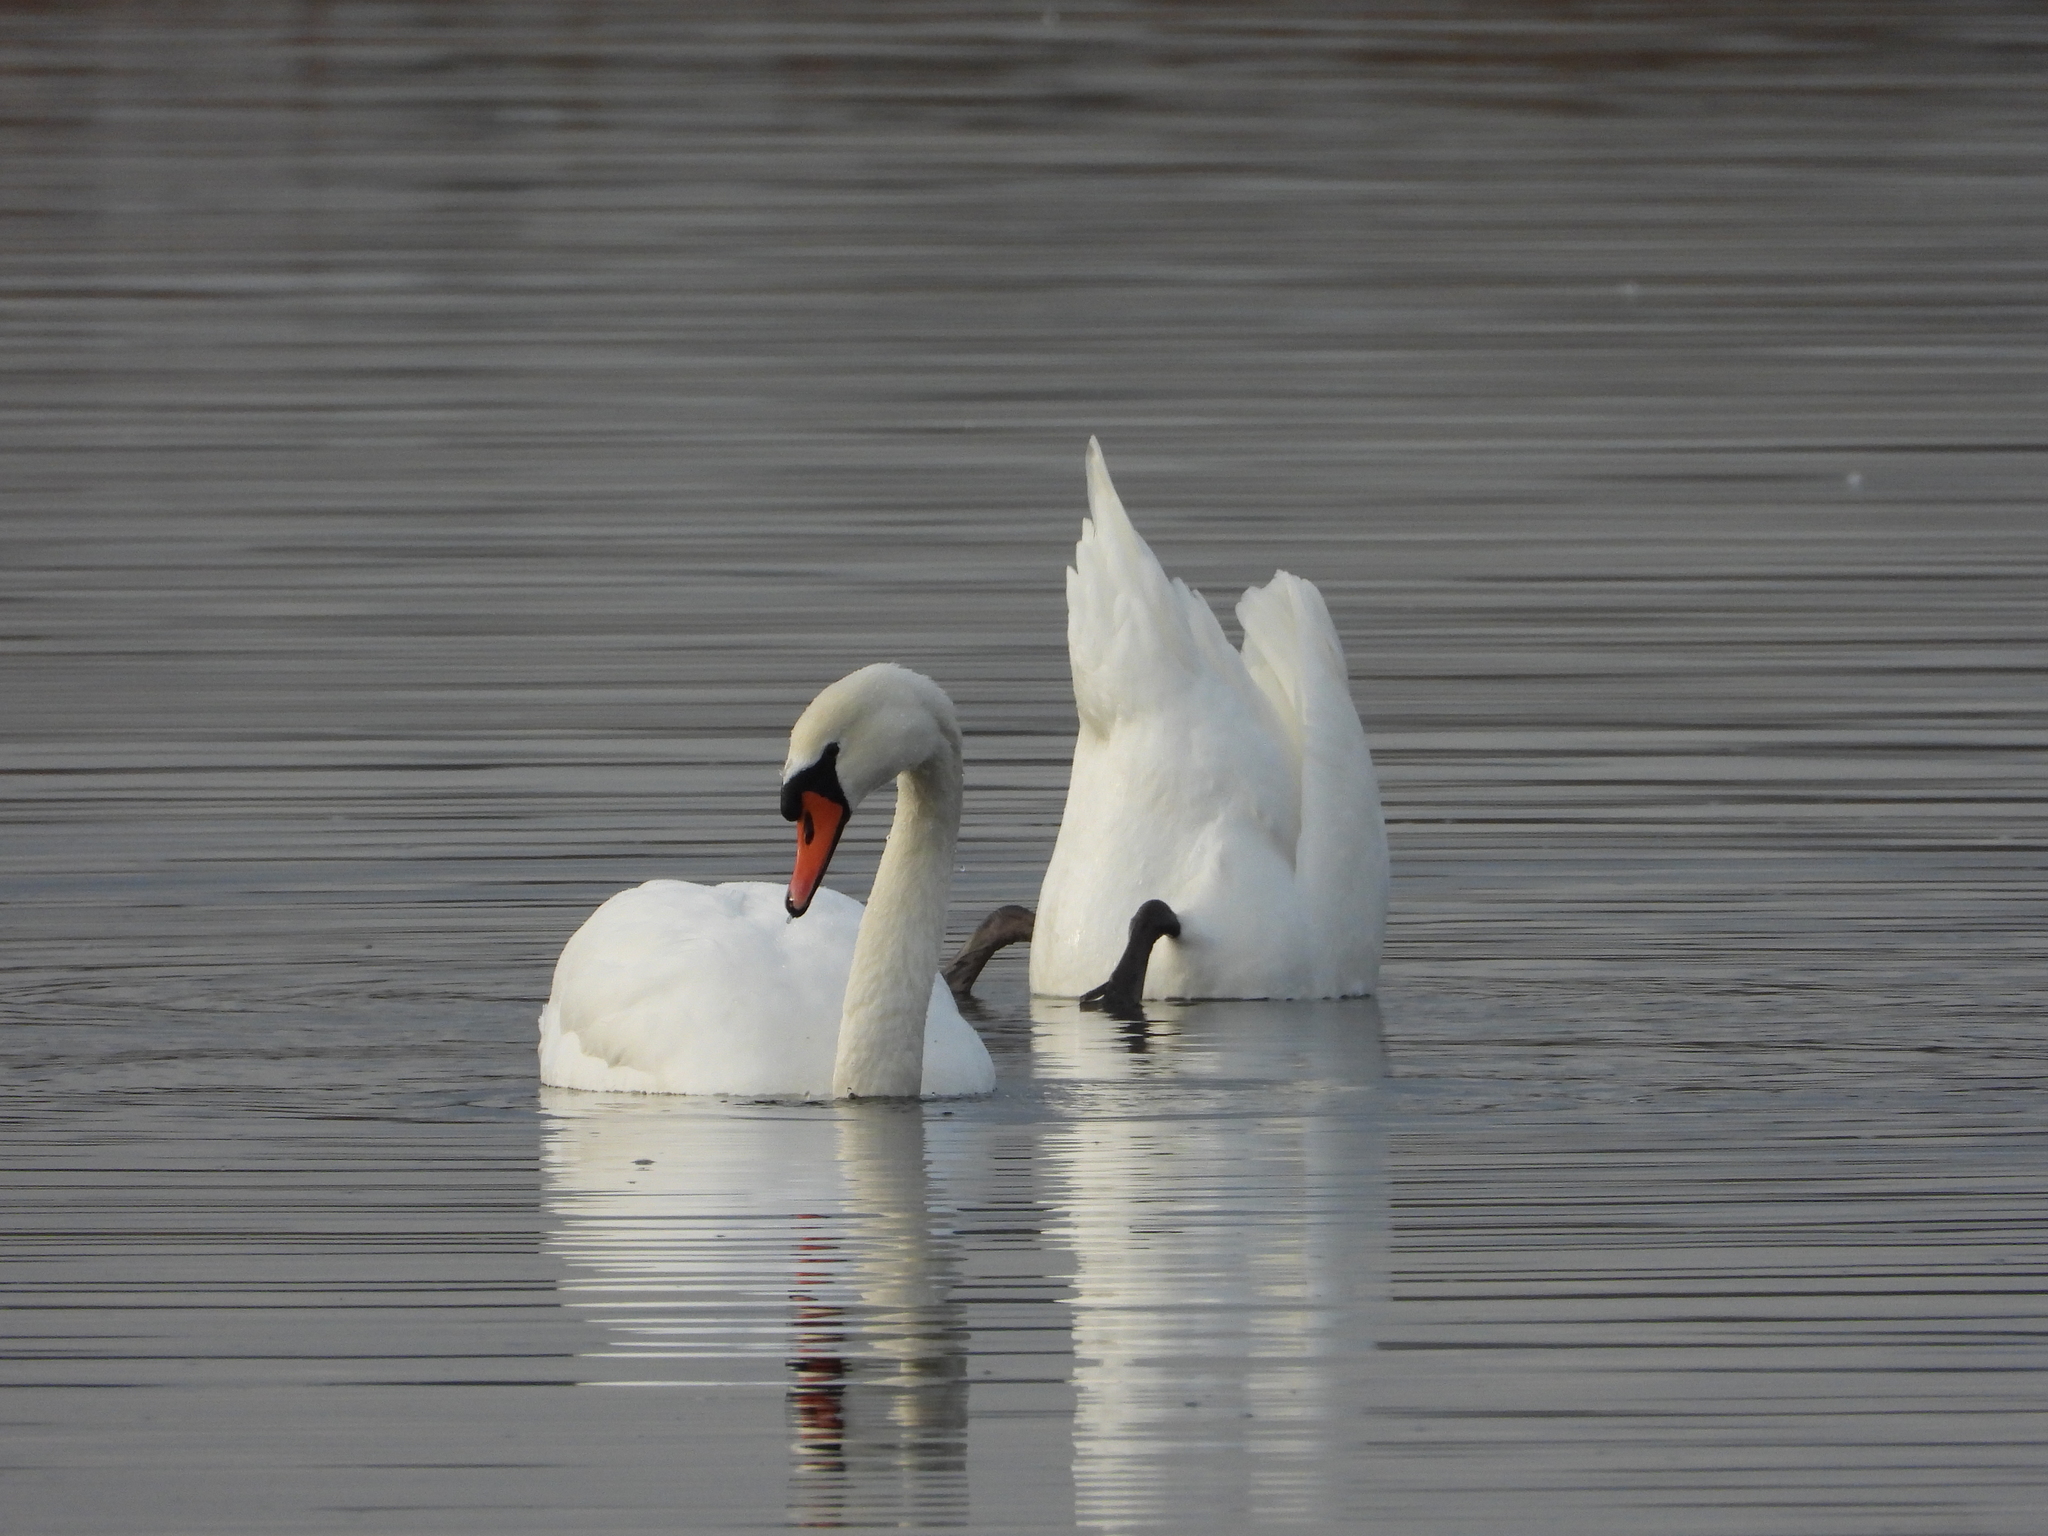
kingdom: Animalia
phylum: Chordata
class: Aves
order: Anseriformes
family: Anatidae
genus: Cygnus
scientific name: Cygnus olor
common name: Mute swan
